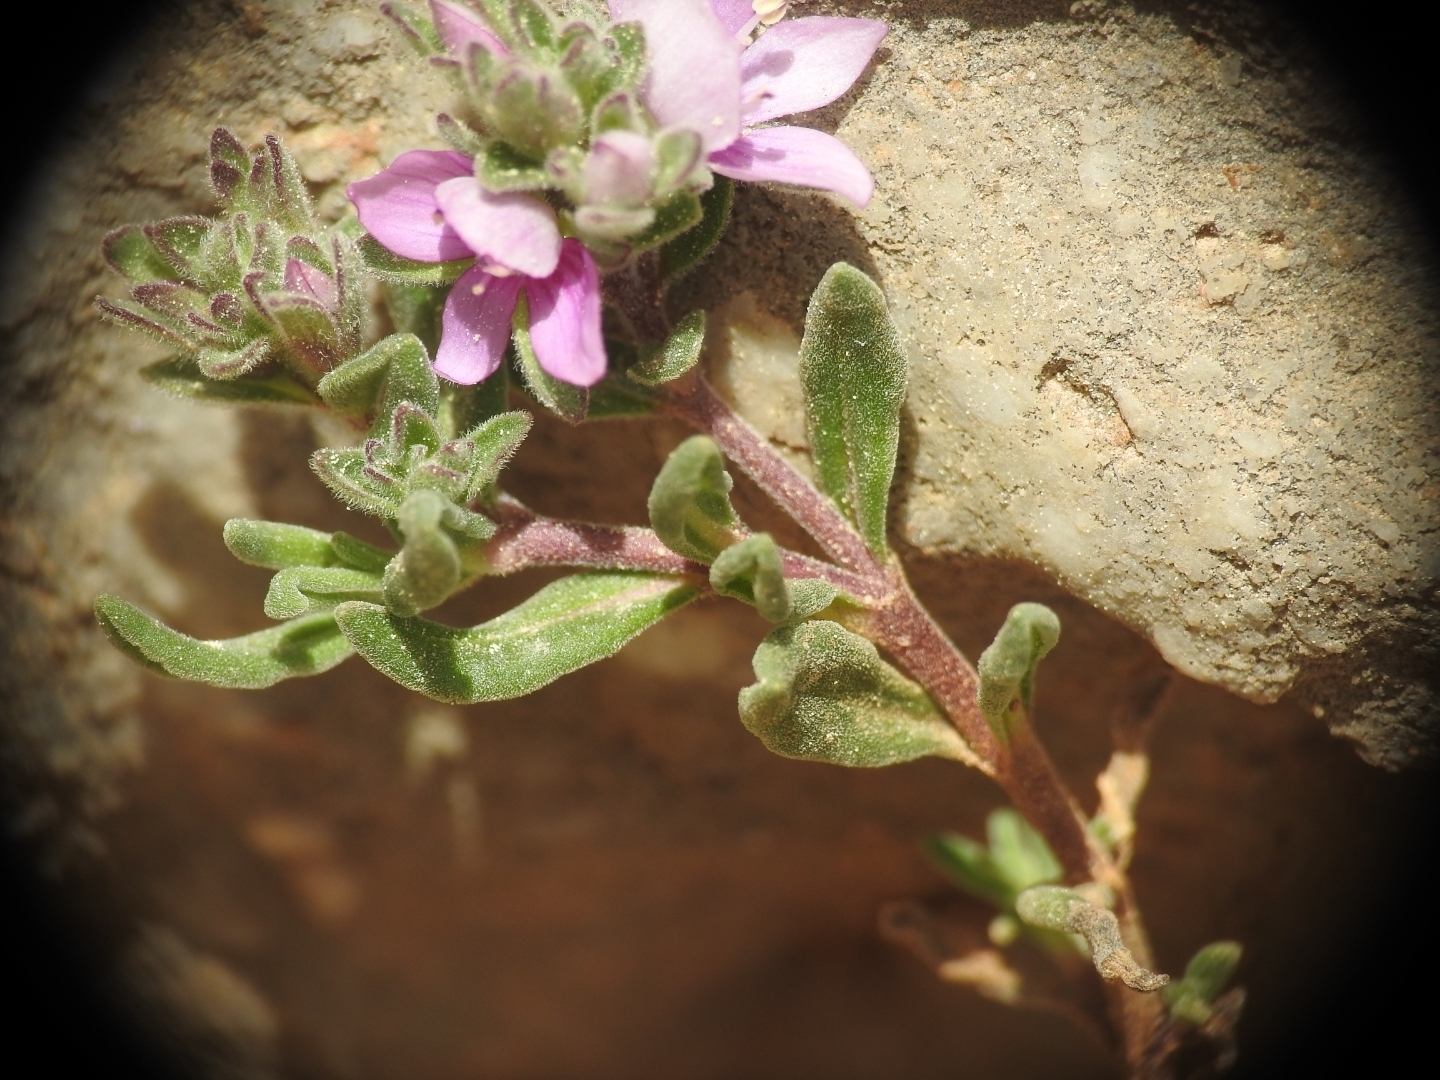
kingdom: Plantae
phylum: Tracheophyta
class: Magnoliopsida
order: Lamiales
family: Plantaginaceae
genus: Veronica
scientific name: Veronica thymifolia
